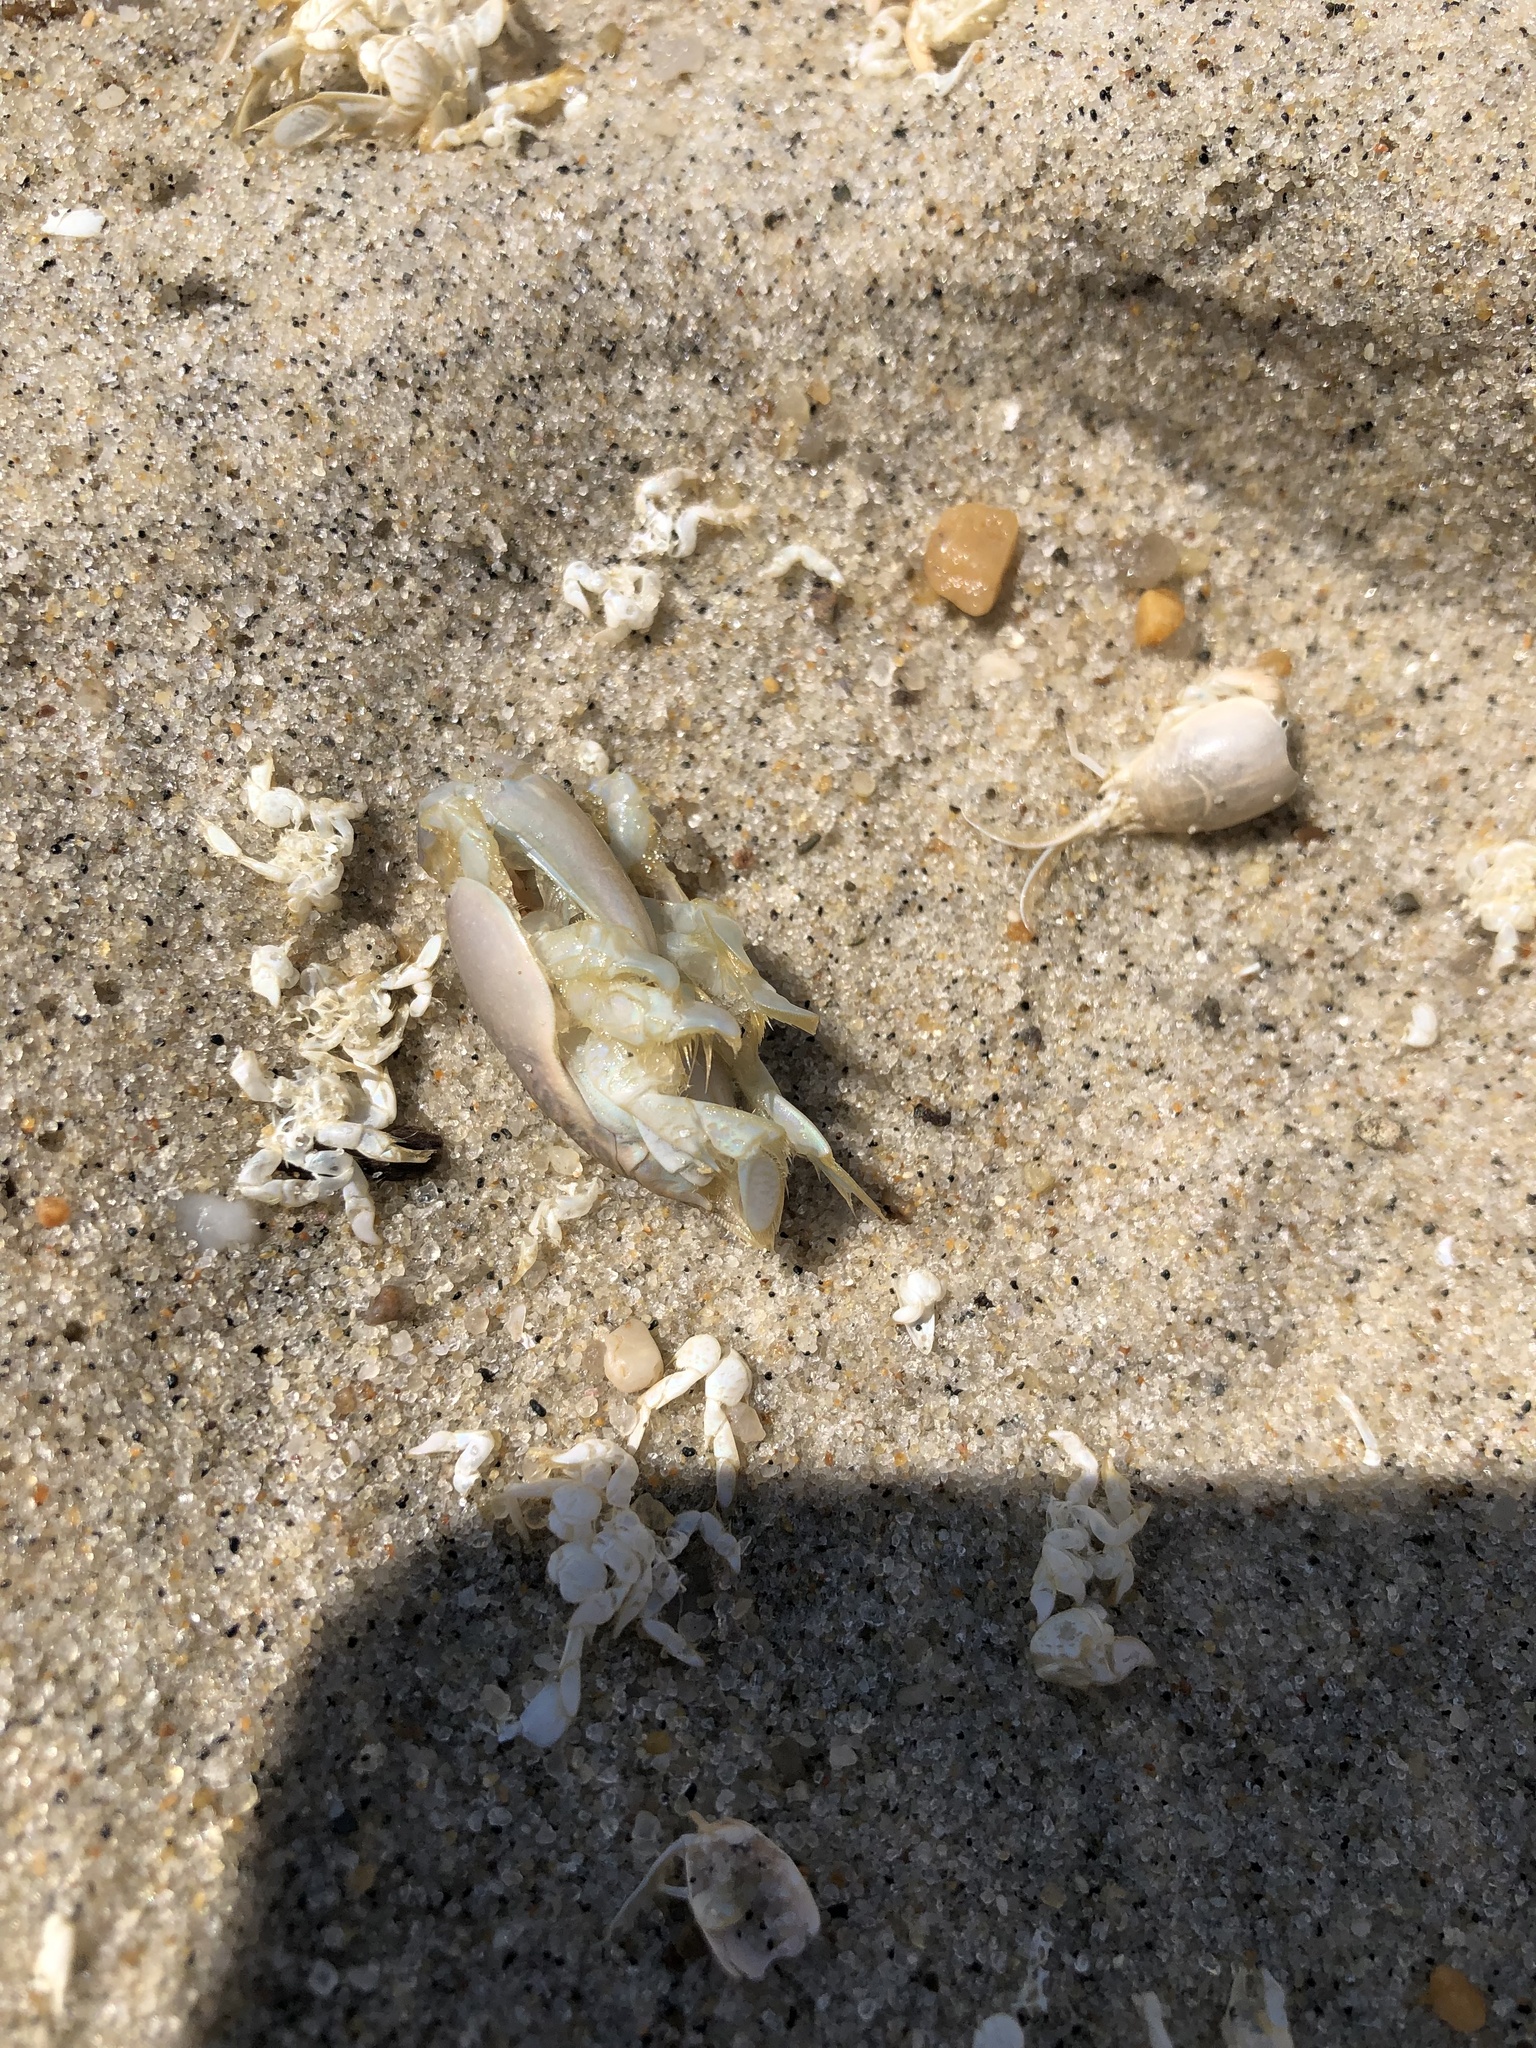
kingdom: Animalia
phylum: Arthropoda
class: Malacostraca
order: Decapoda
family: Hippidae
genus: Emerita
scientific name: Emerita talpoida
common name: Atlantic sand crab
